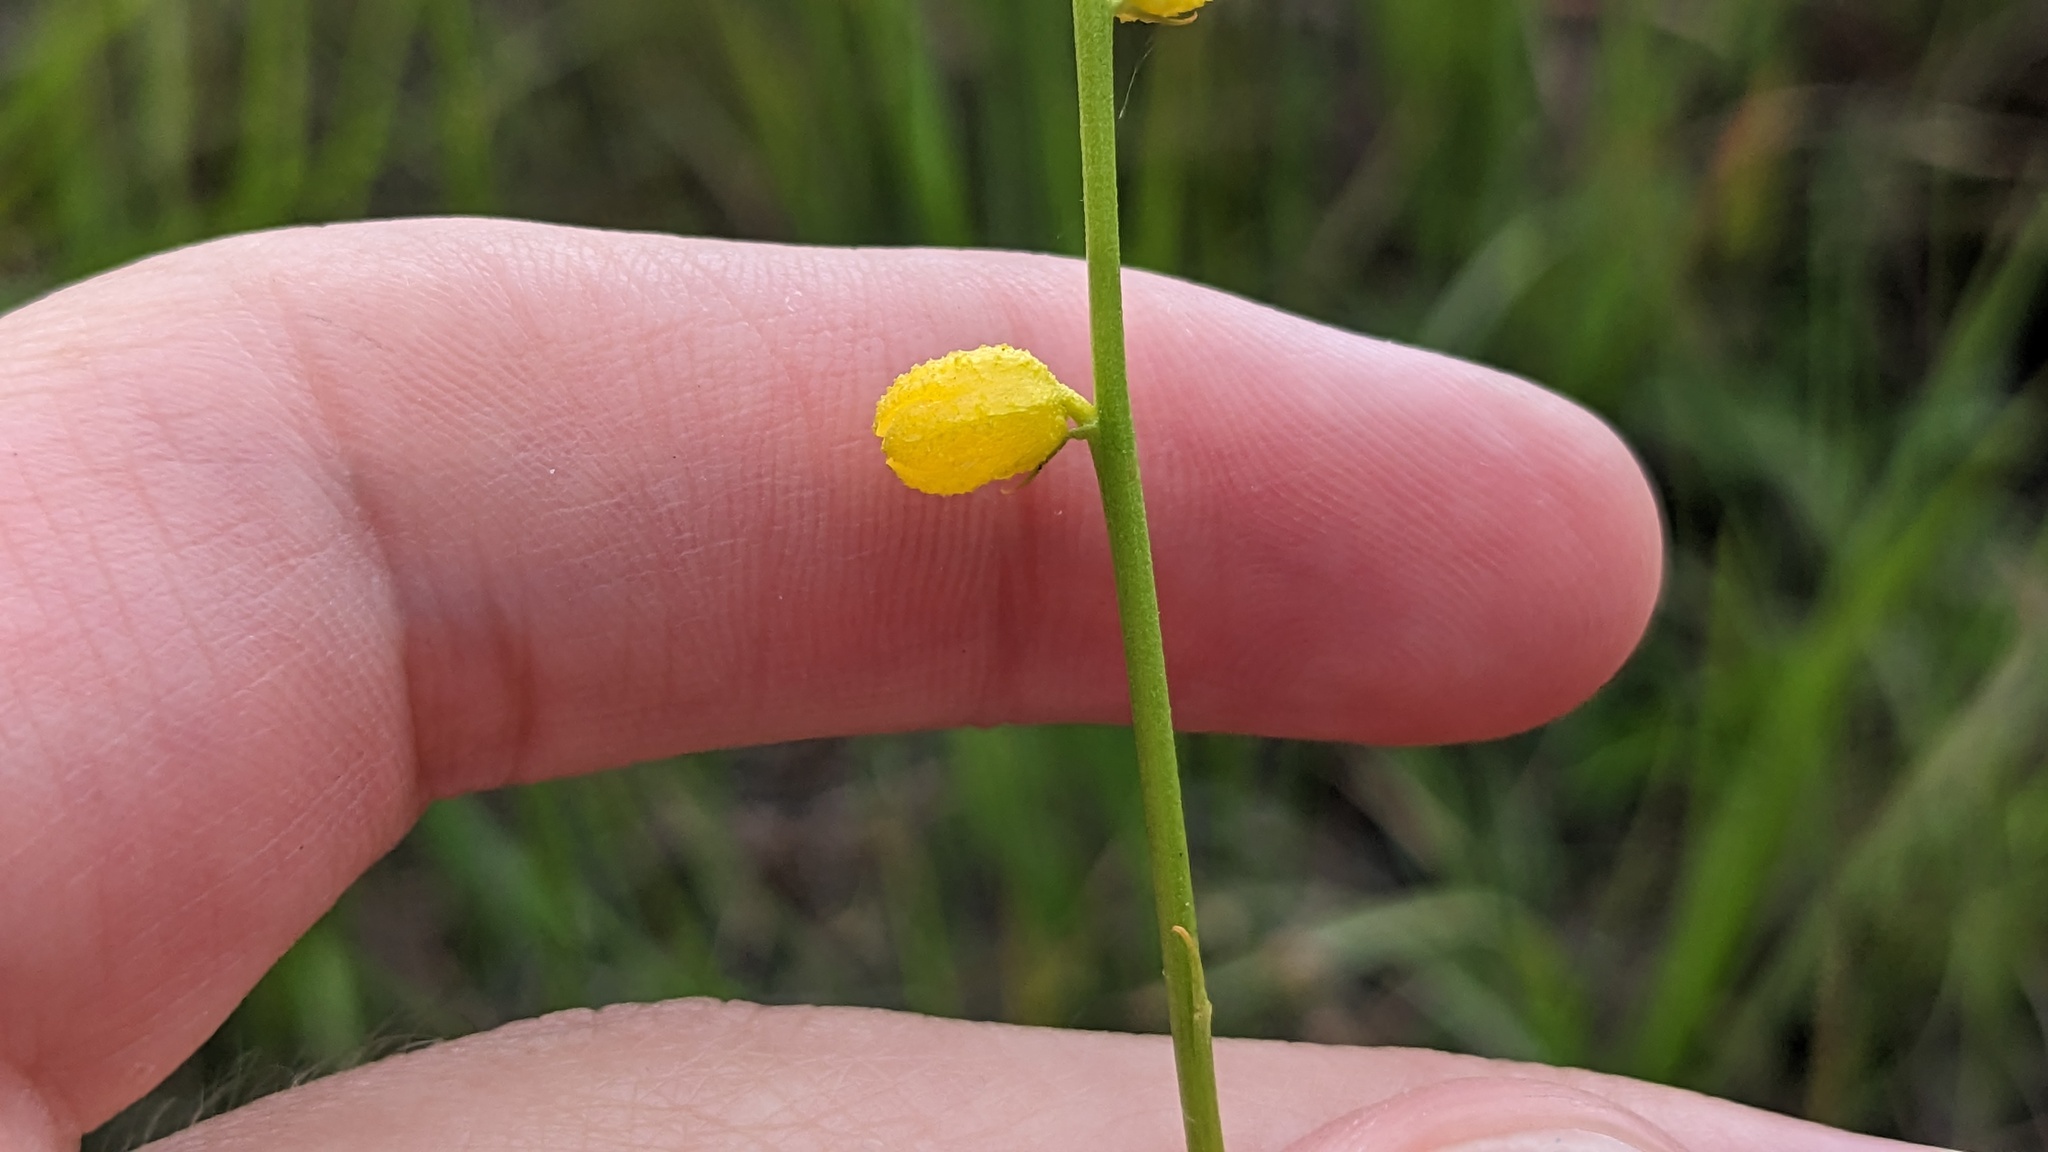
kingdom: Plantae
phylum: Tracheophyta
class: Liliopsida
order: Dioscoreales
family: Nartheciaceae
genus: Aletris
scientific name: Aletris aurea
